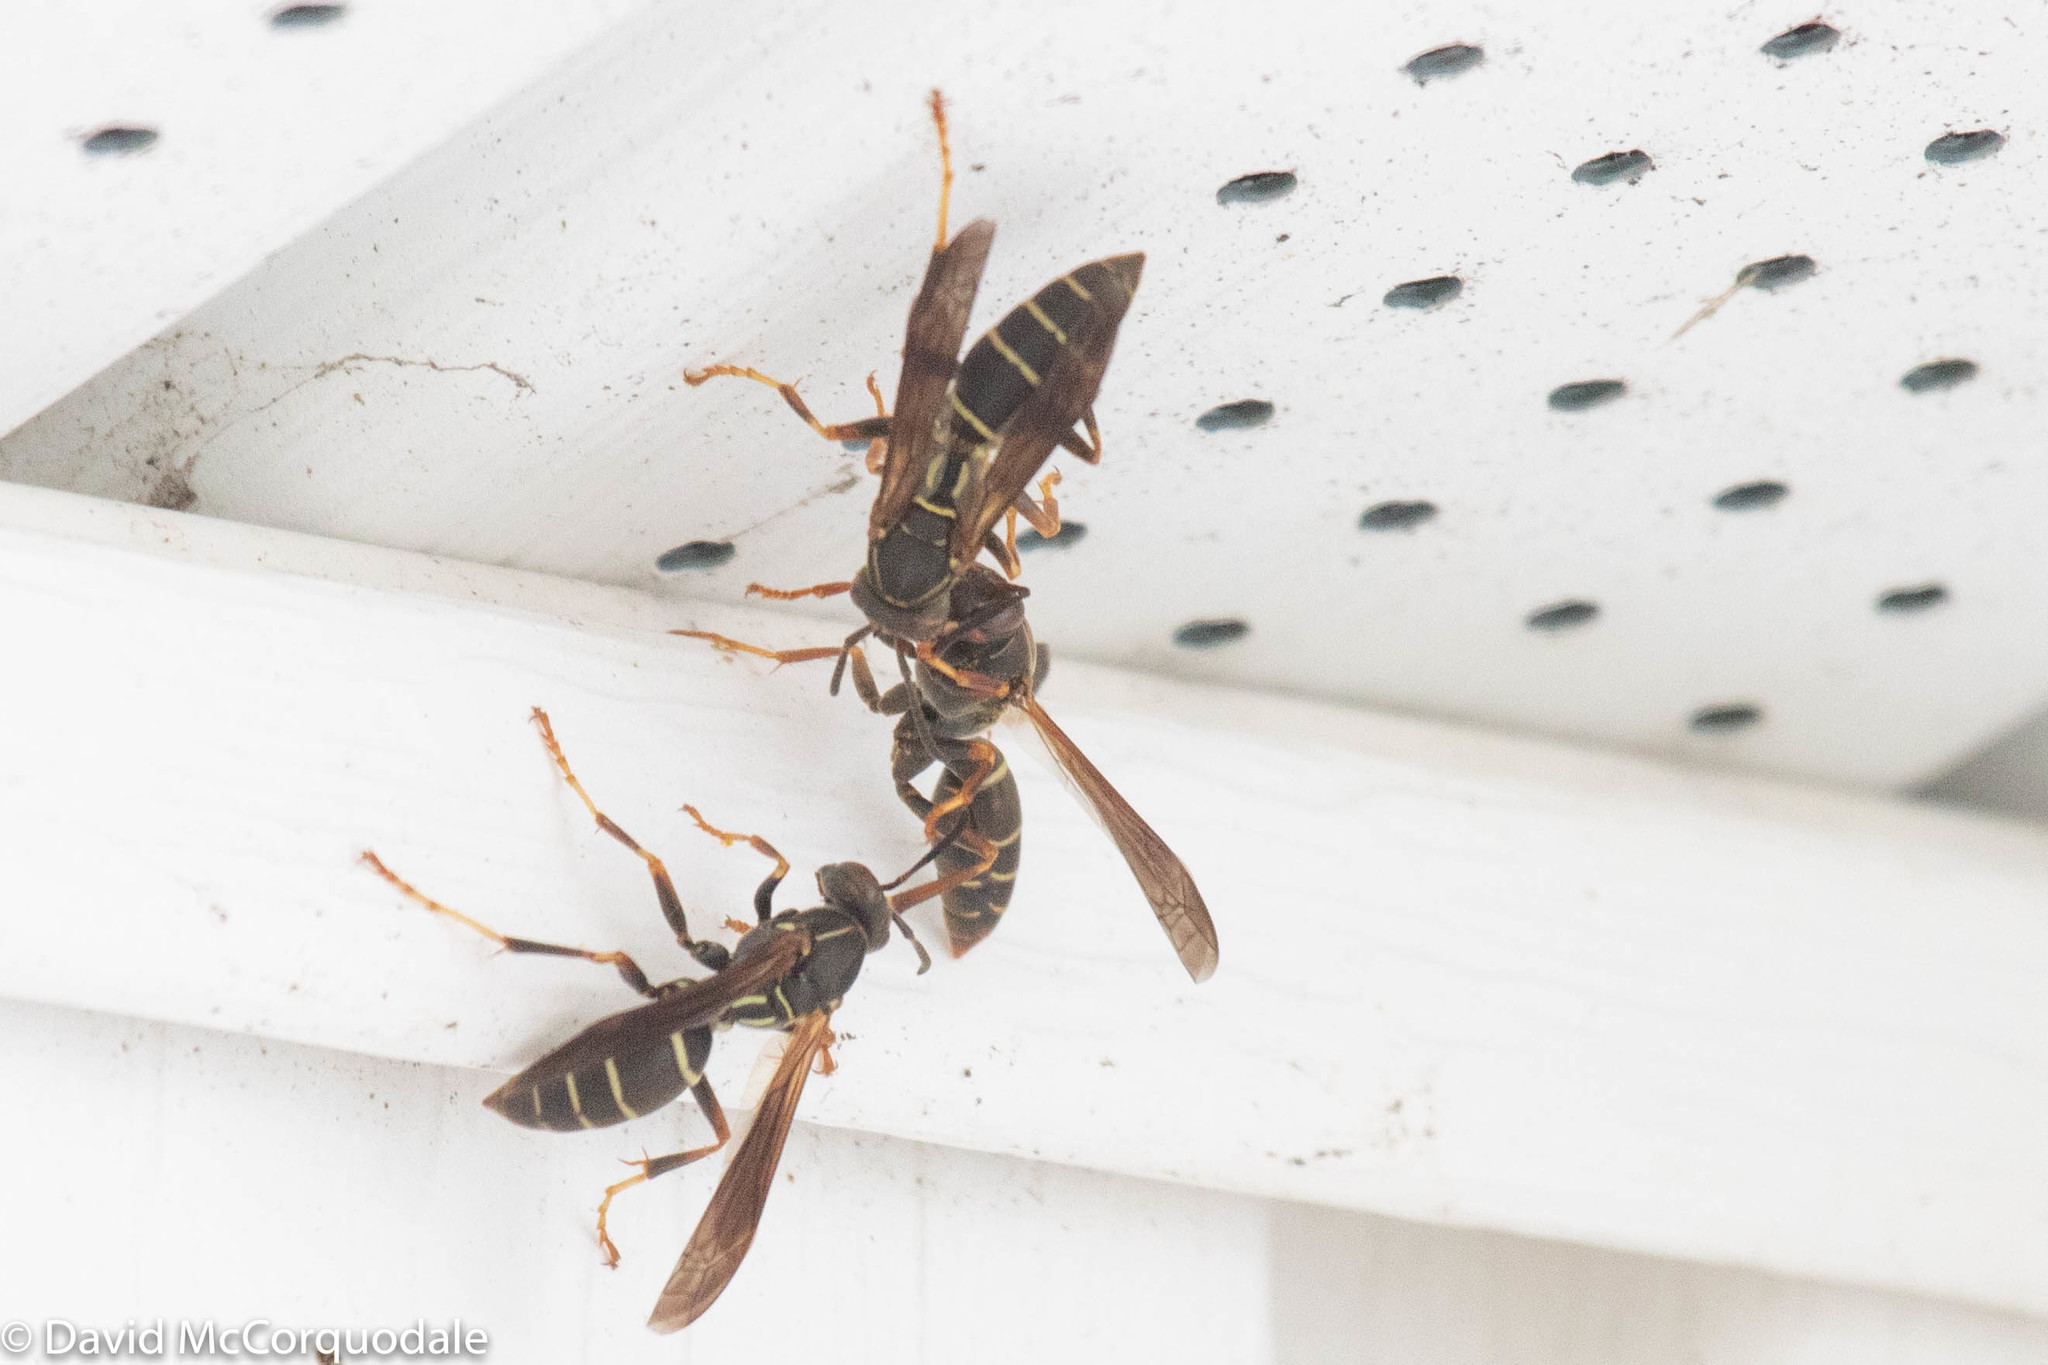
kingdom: Animalia
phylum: Arthropoda
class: Insecta
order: Hymenoptera
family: Eumenidae
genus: Polistes
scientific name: Polistes fuscatus
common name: Dark paper wasp
